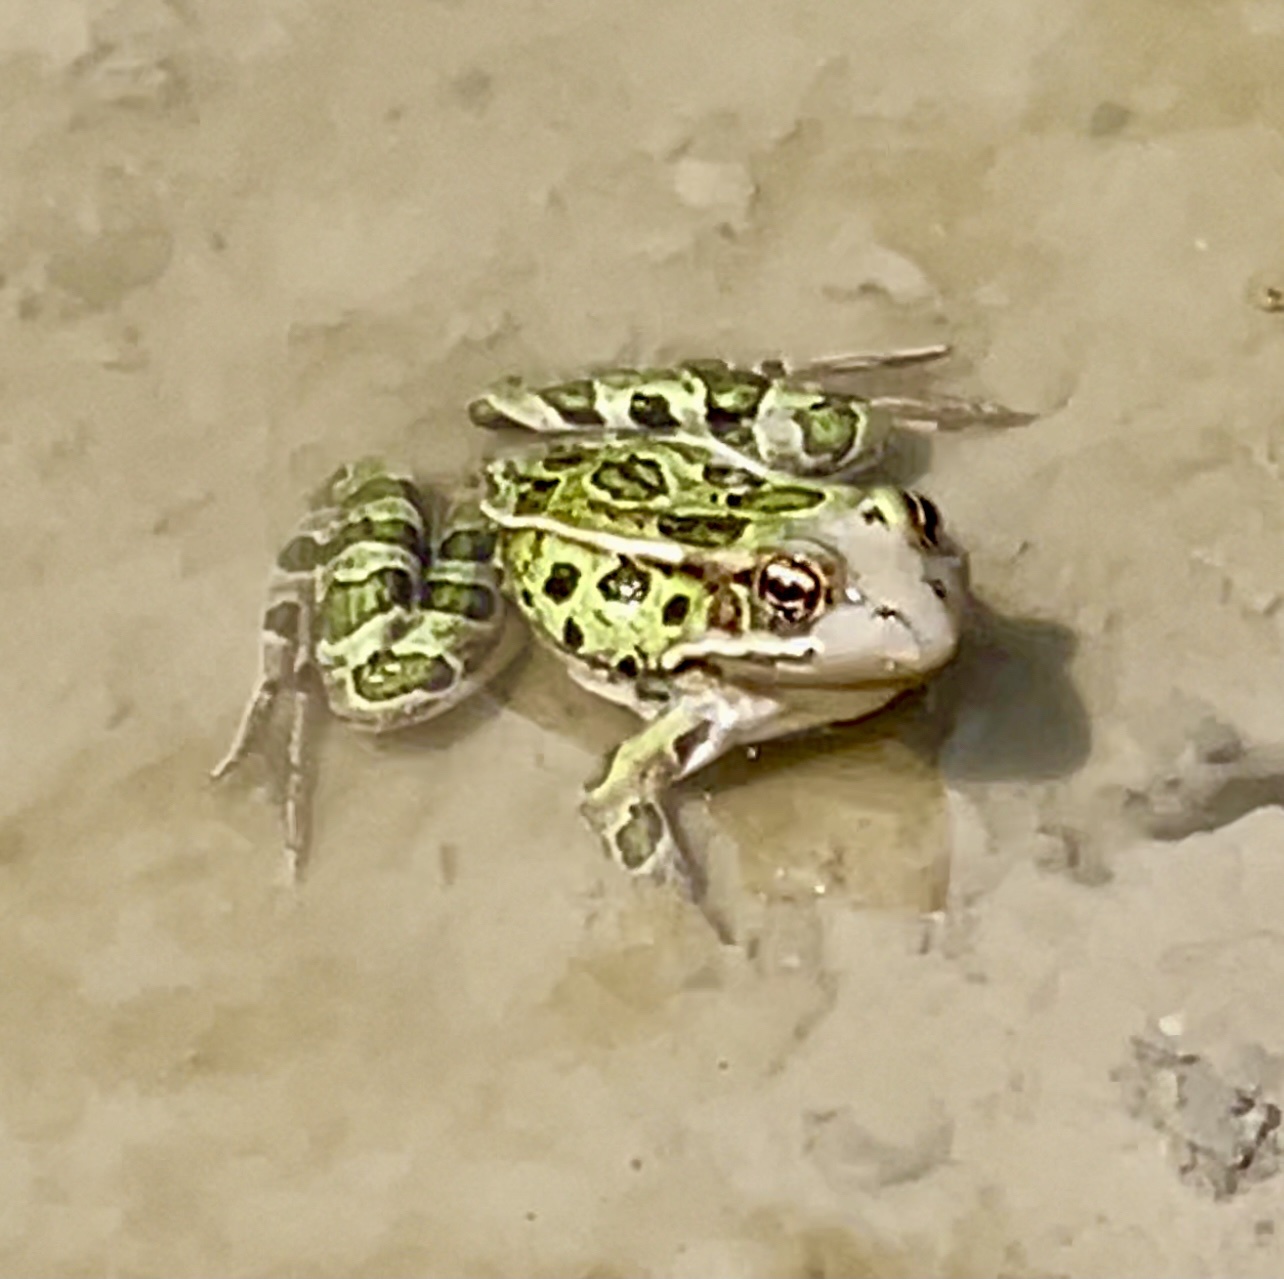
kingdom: Animalia
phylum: Chordata
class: Amphibia
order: Anura
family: Ranidae
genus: Lithobates
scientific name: Lithobates pipiens
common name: Northern leopard frog
